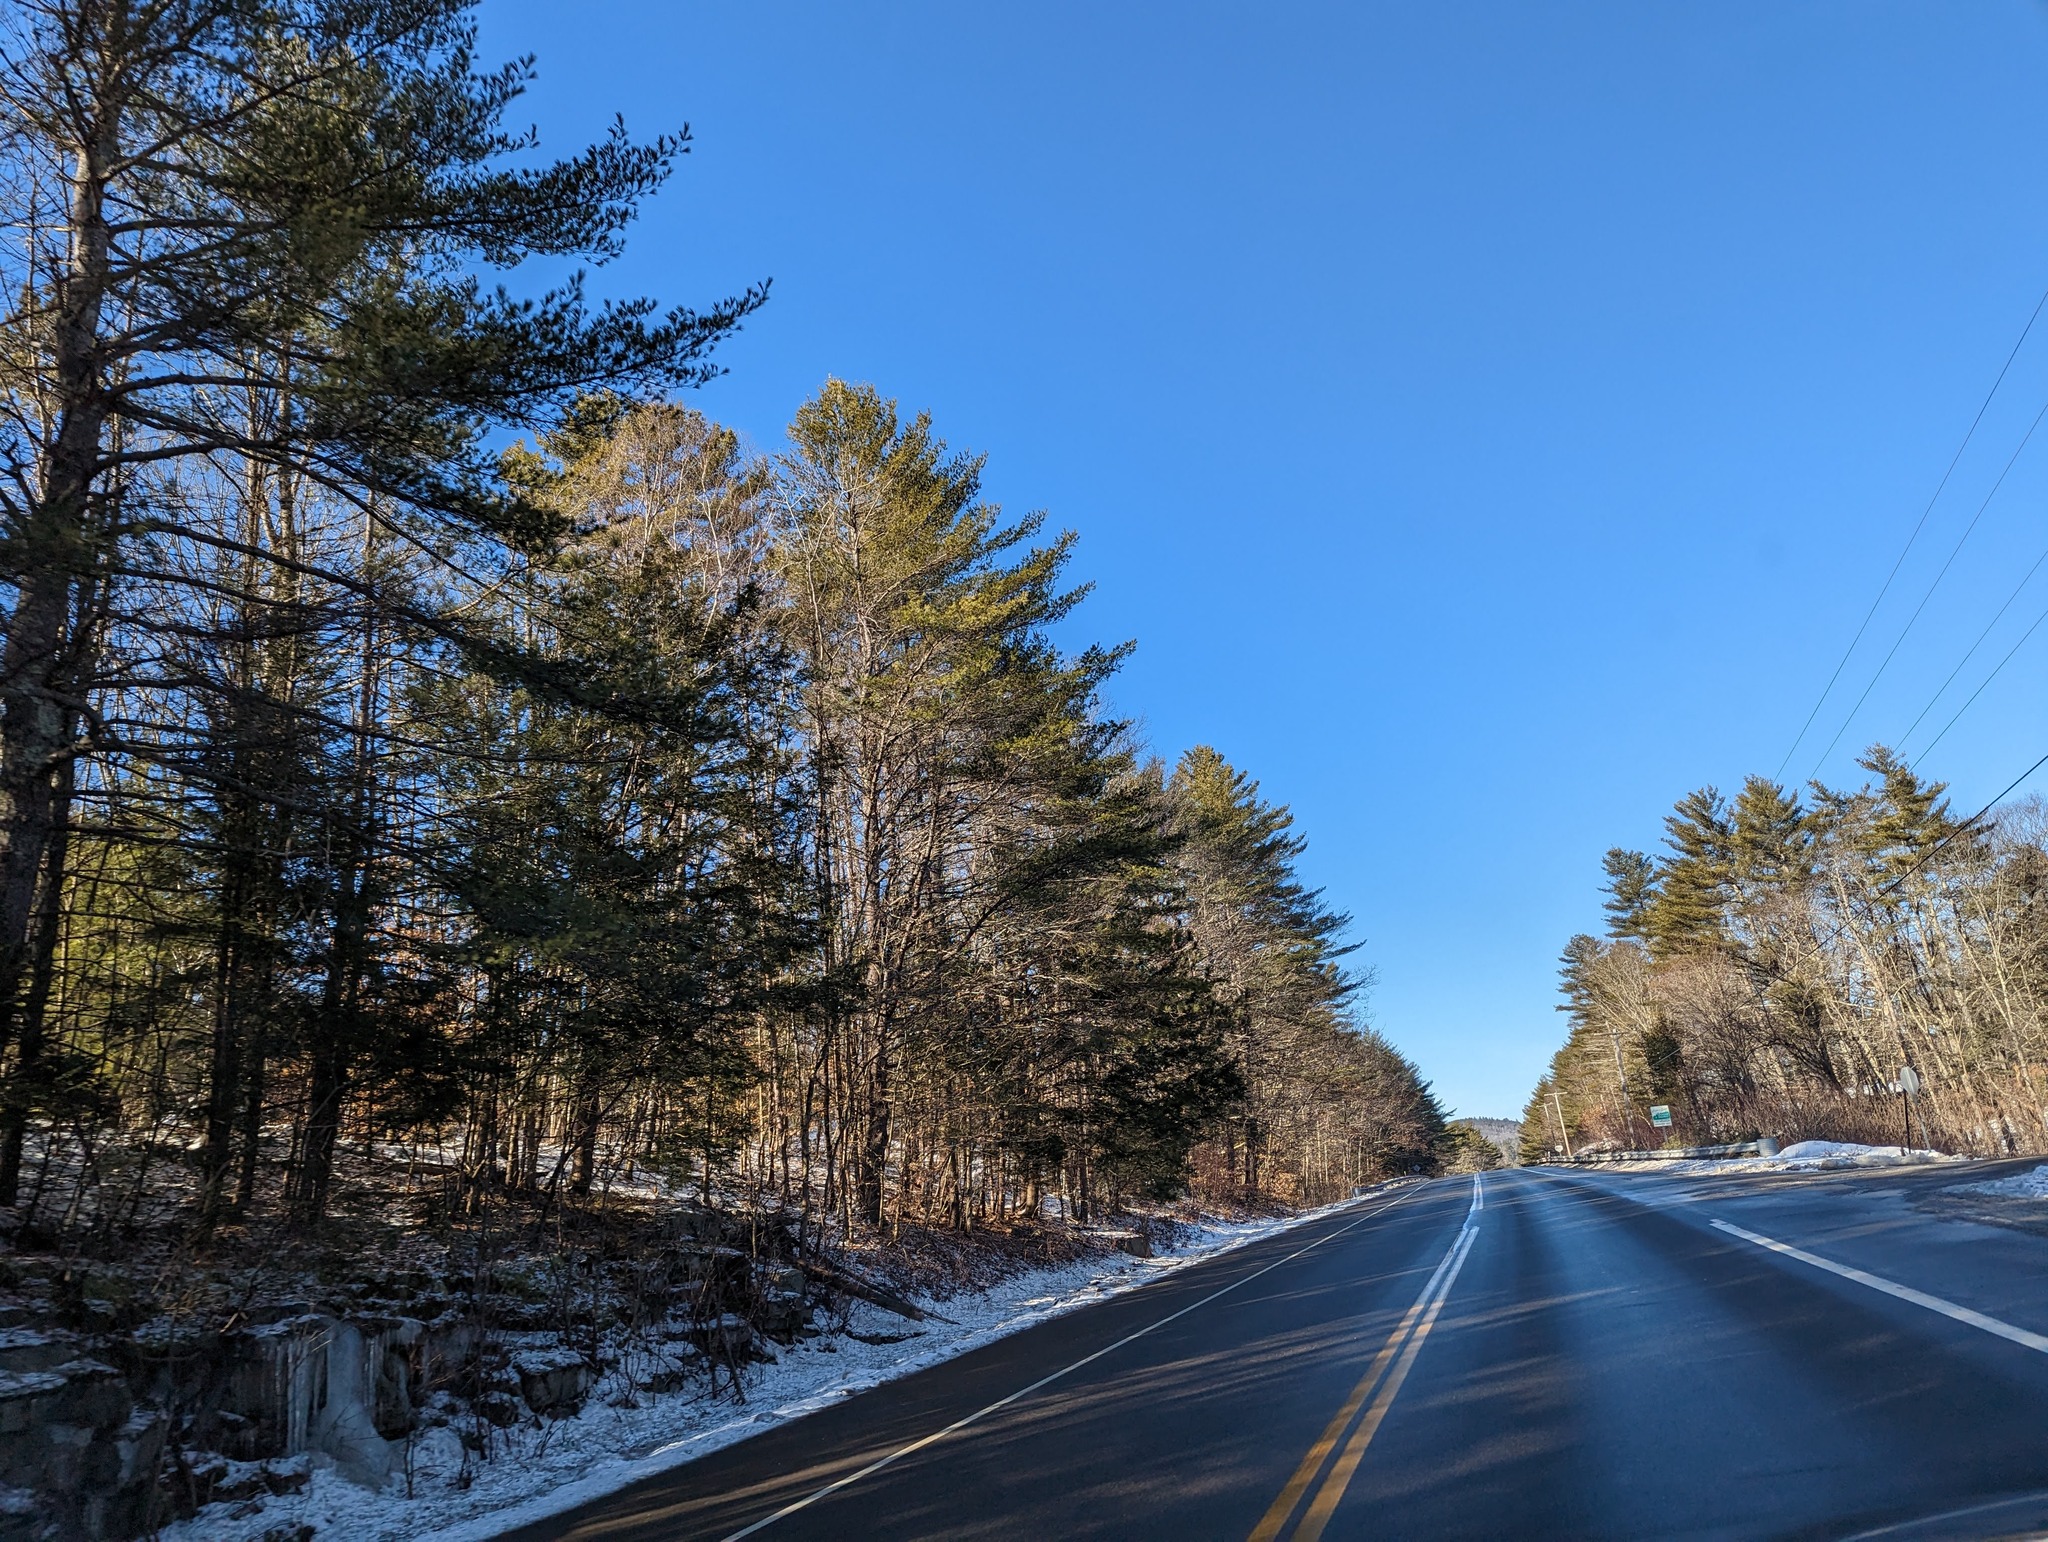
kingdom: Plantae
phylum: Tracheophyta
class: Pinopsida
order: Pinales
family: Pinaceae
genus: Pinus
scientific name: Pinus strobus
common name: Weymouth pine
